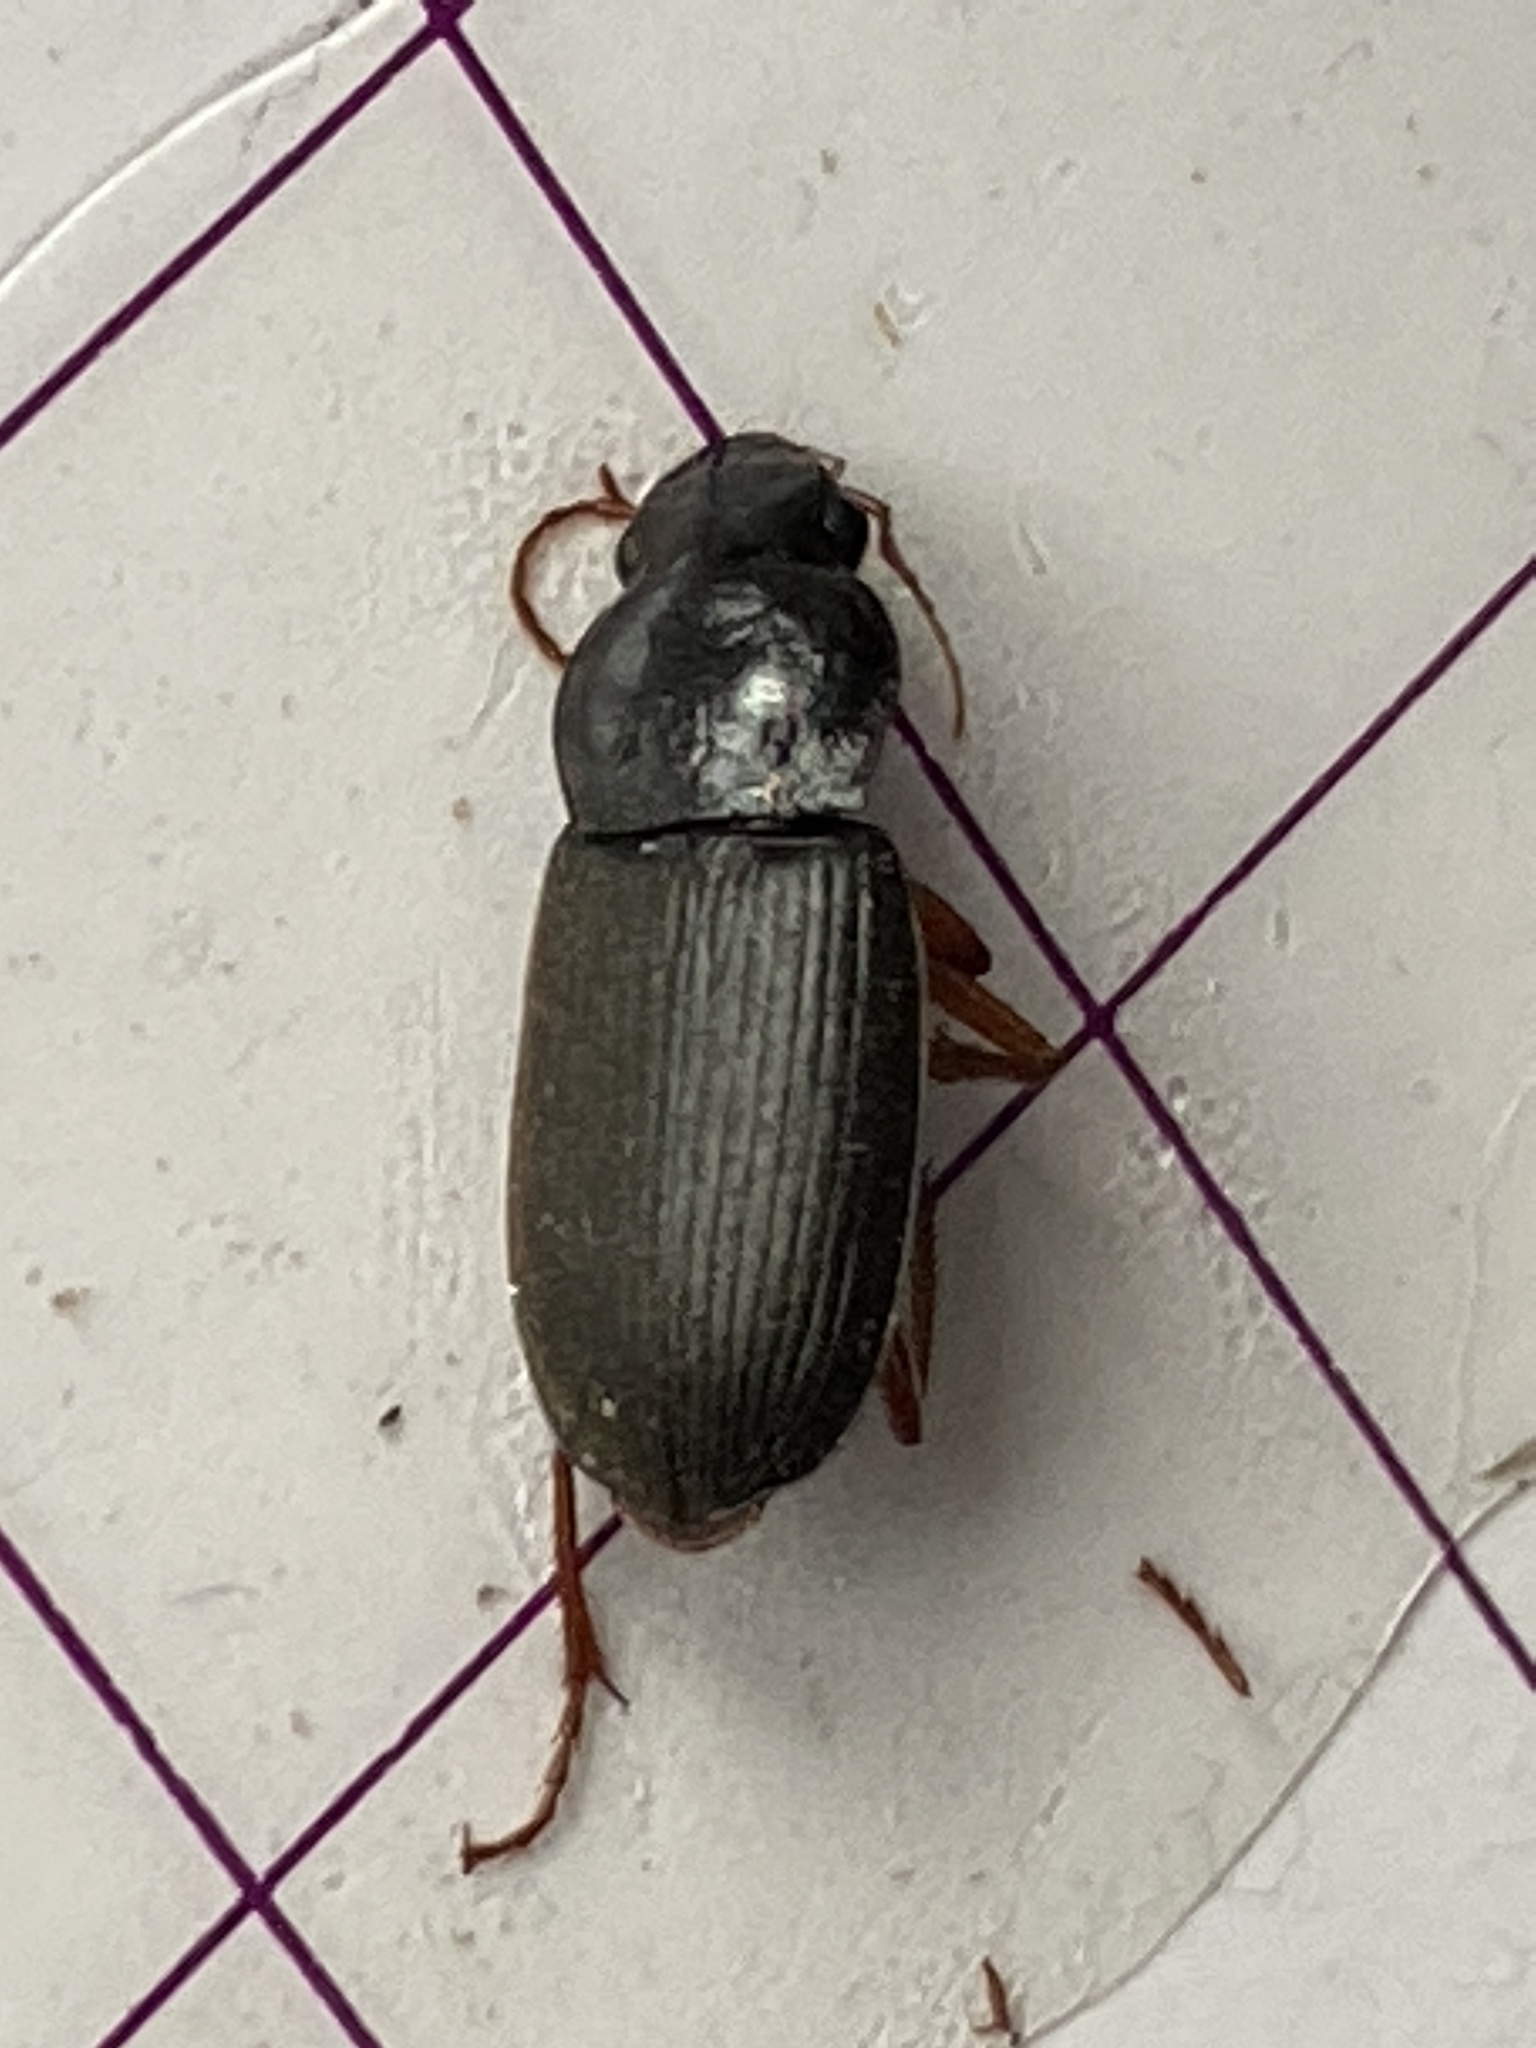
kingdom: Animalia
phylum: Arthropoda
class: Insecta
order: Coleoptera
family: Carabidae
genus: Harpalus
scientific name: Harpalus rufipes
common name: Strawberry harp ground beetle
